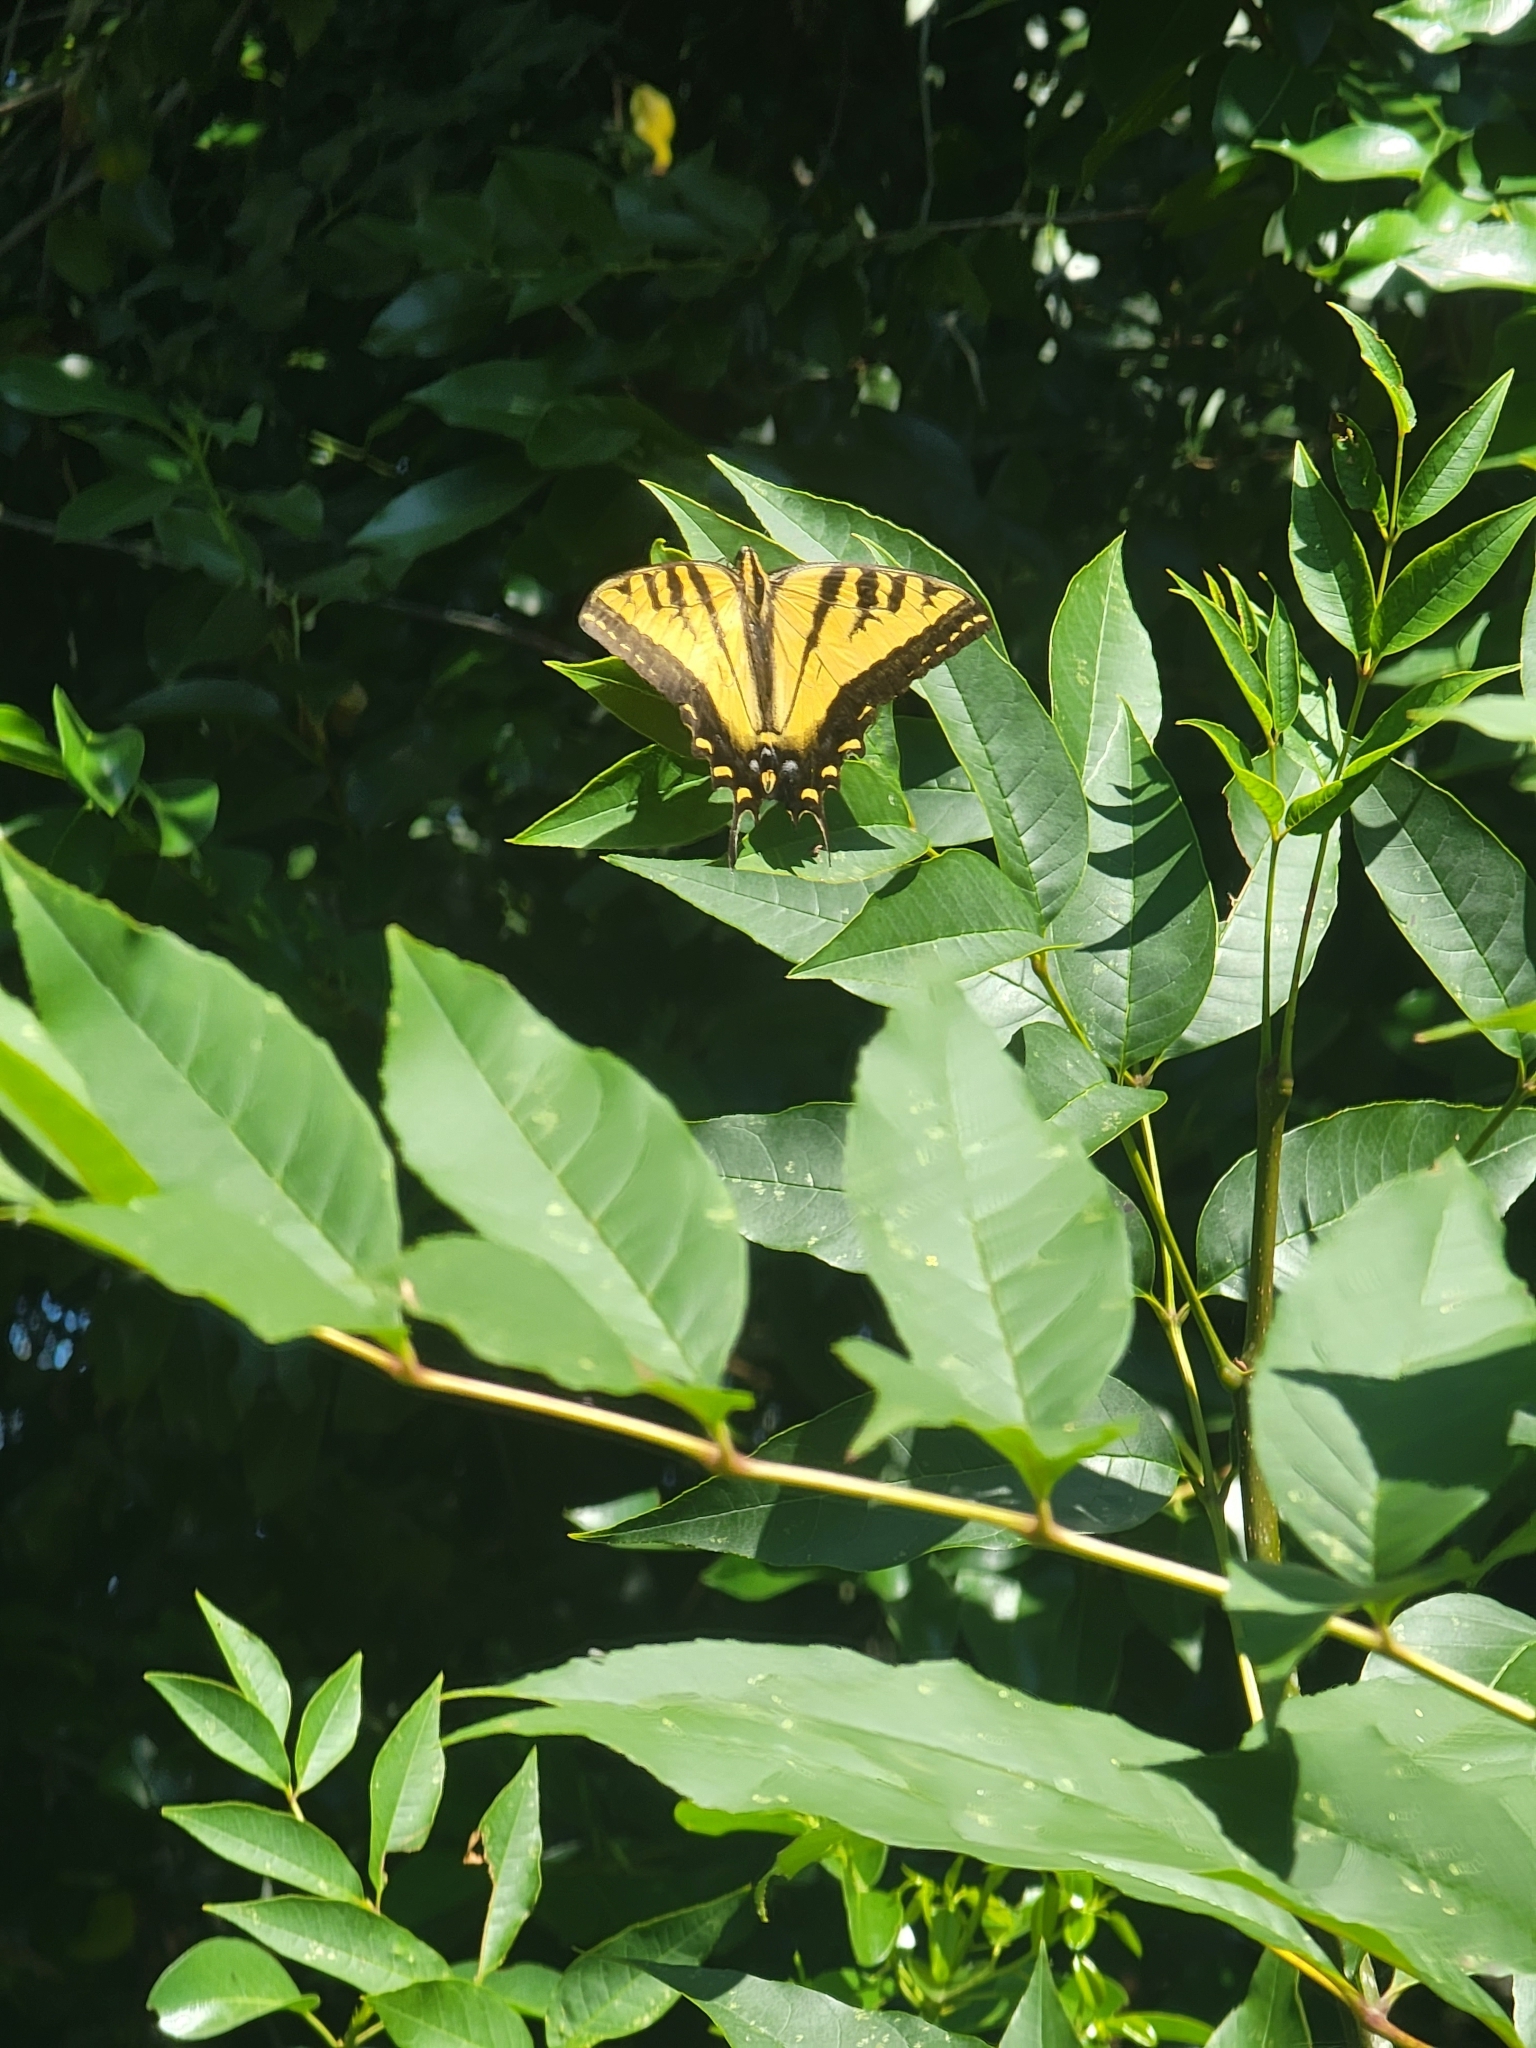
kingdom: Animalia
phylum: Arthropoda
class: Insecta
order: Lepidoptera
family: Papilionidae
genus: Papilio
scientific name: Papilio rutulus
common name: Western tiger swallowtail
